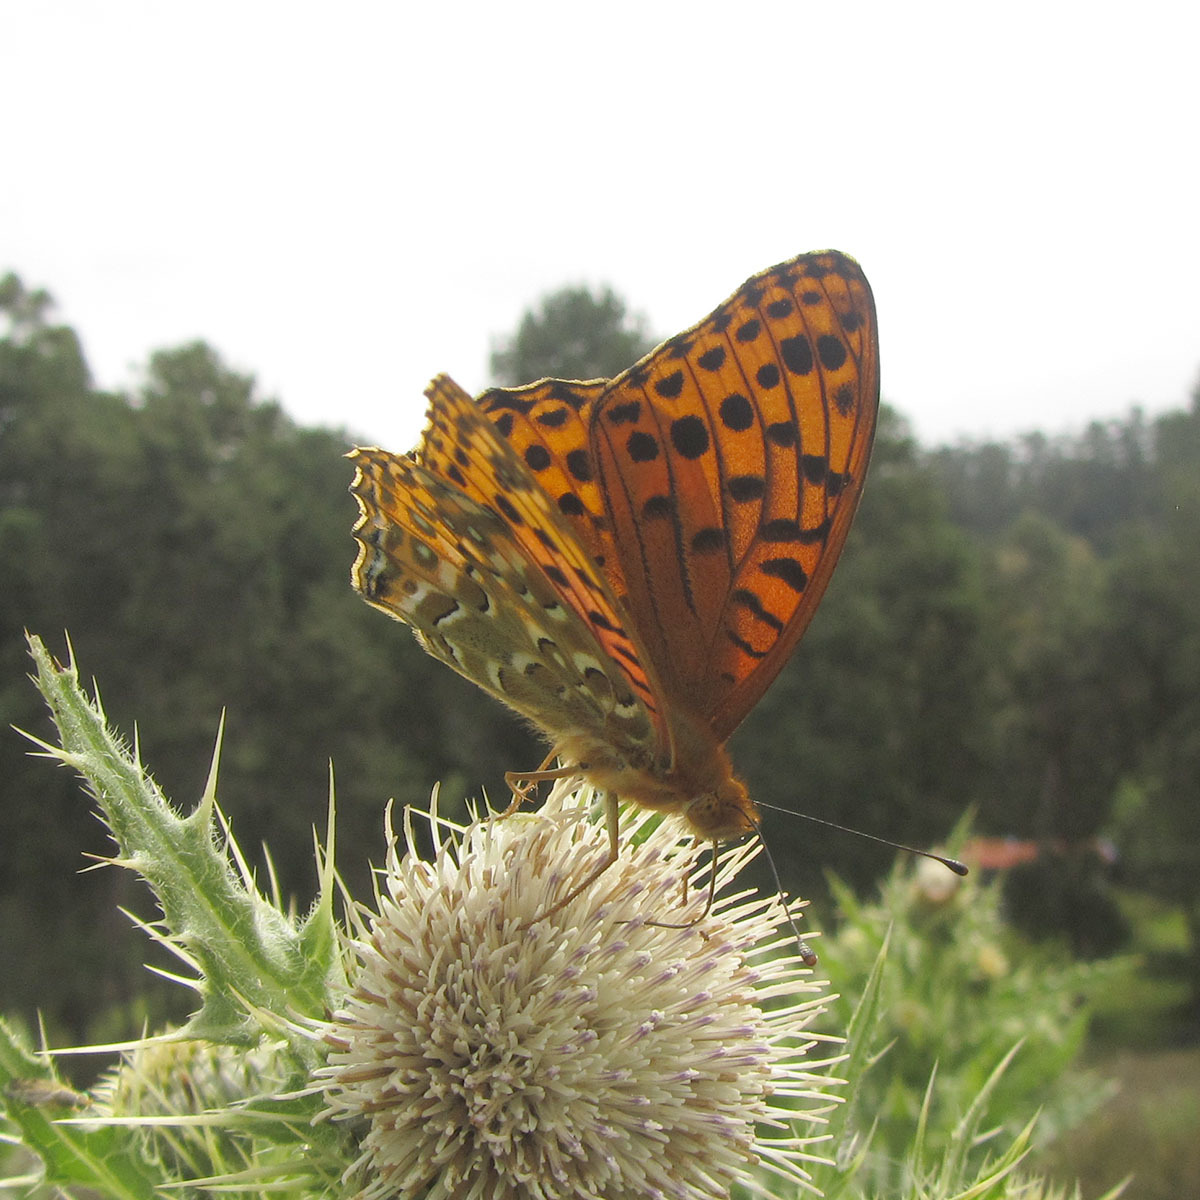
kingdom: Animalia
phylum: Arthropoda
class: Insecta
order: Lepidoptera
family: Nymphalidae
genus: Argyreus
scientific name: Argyreus hyperbius
